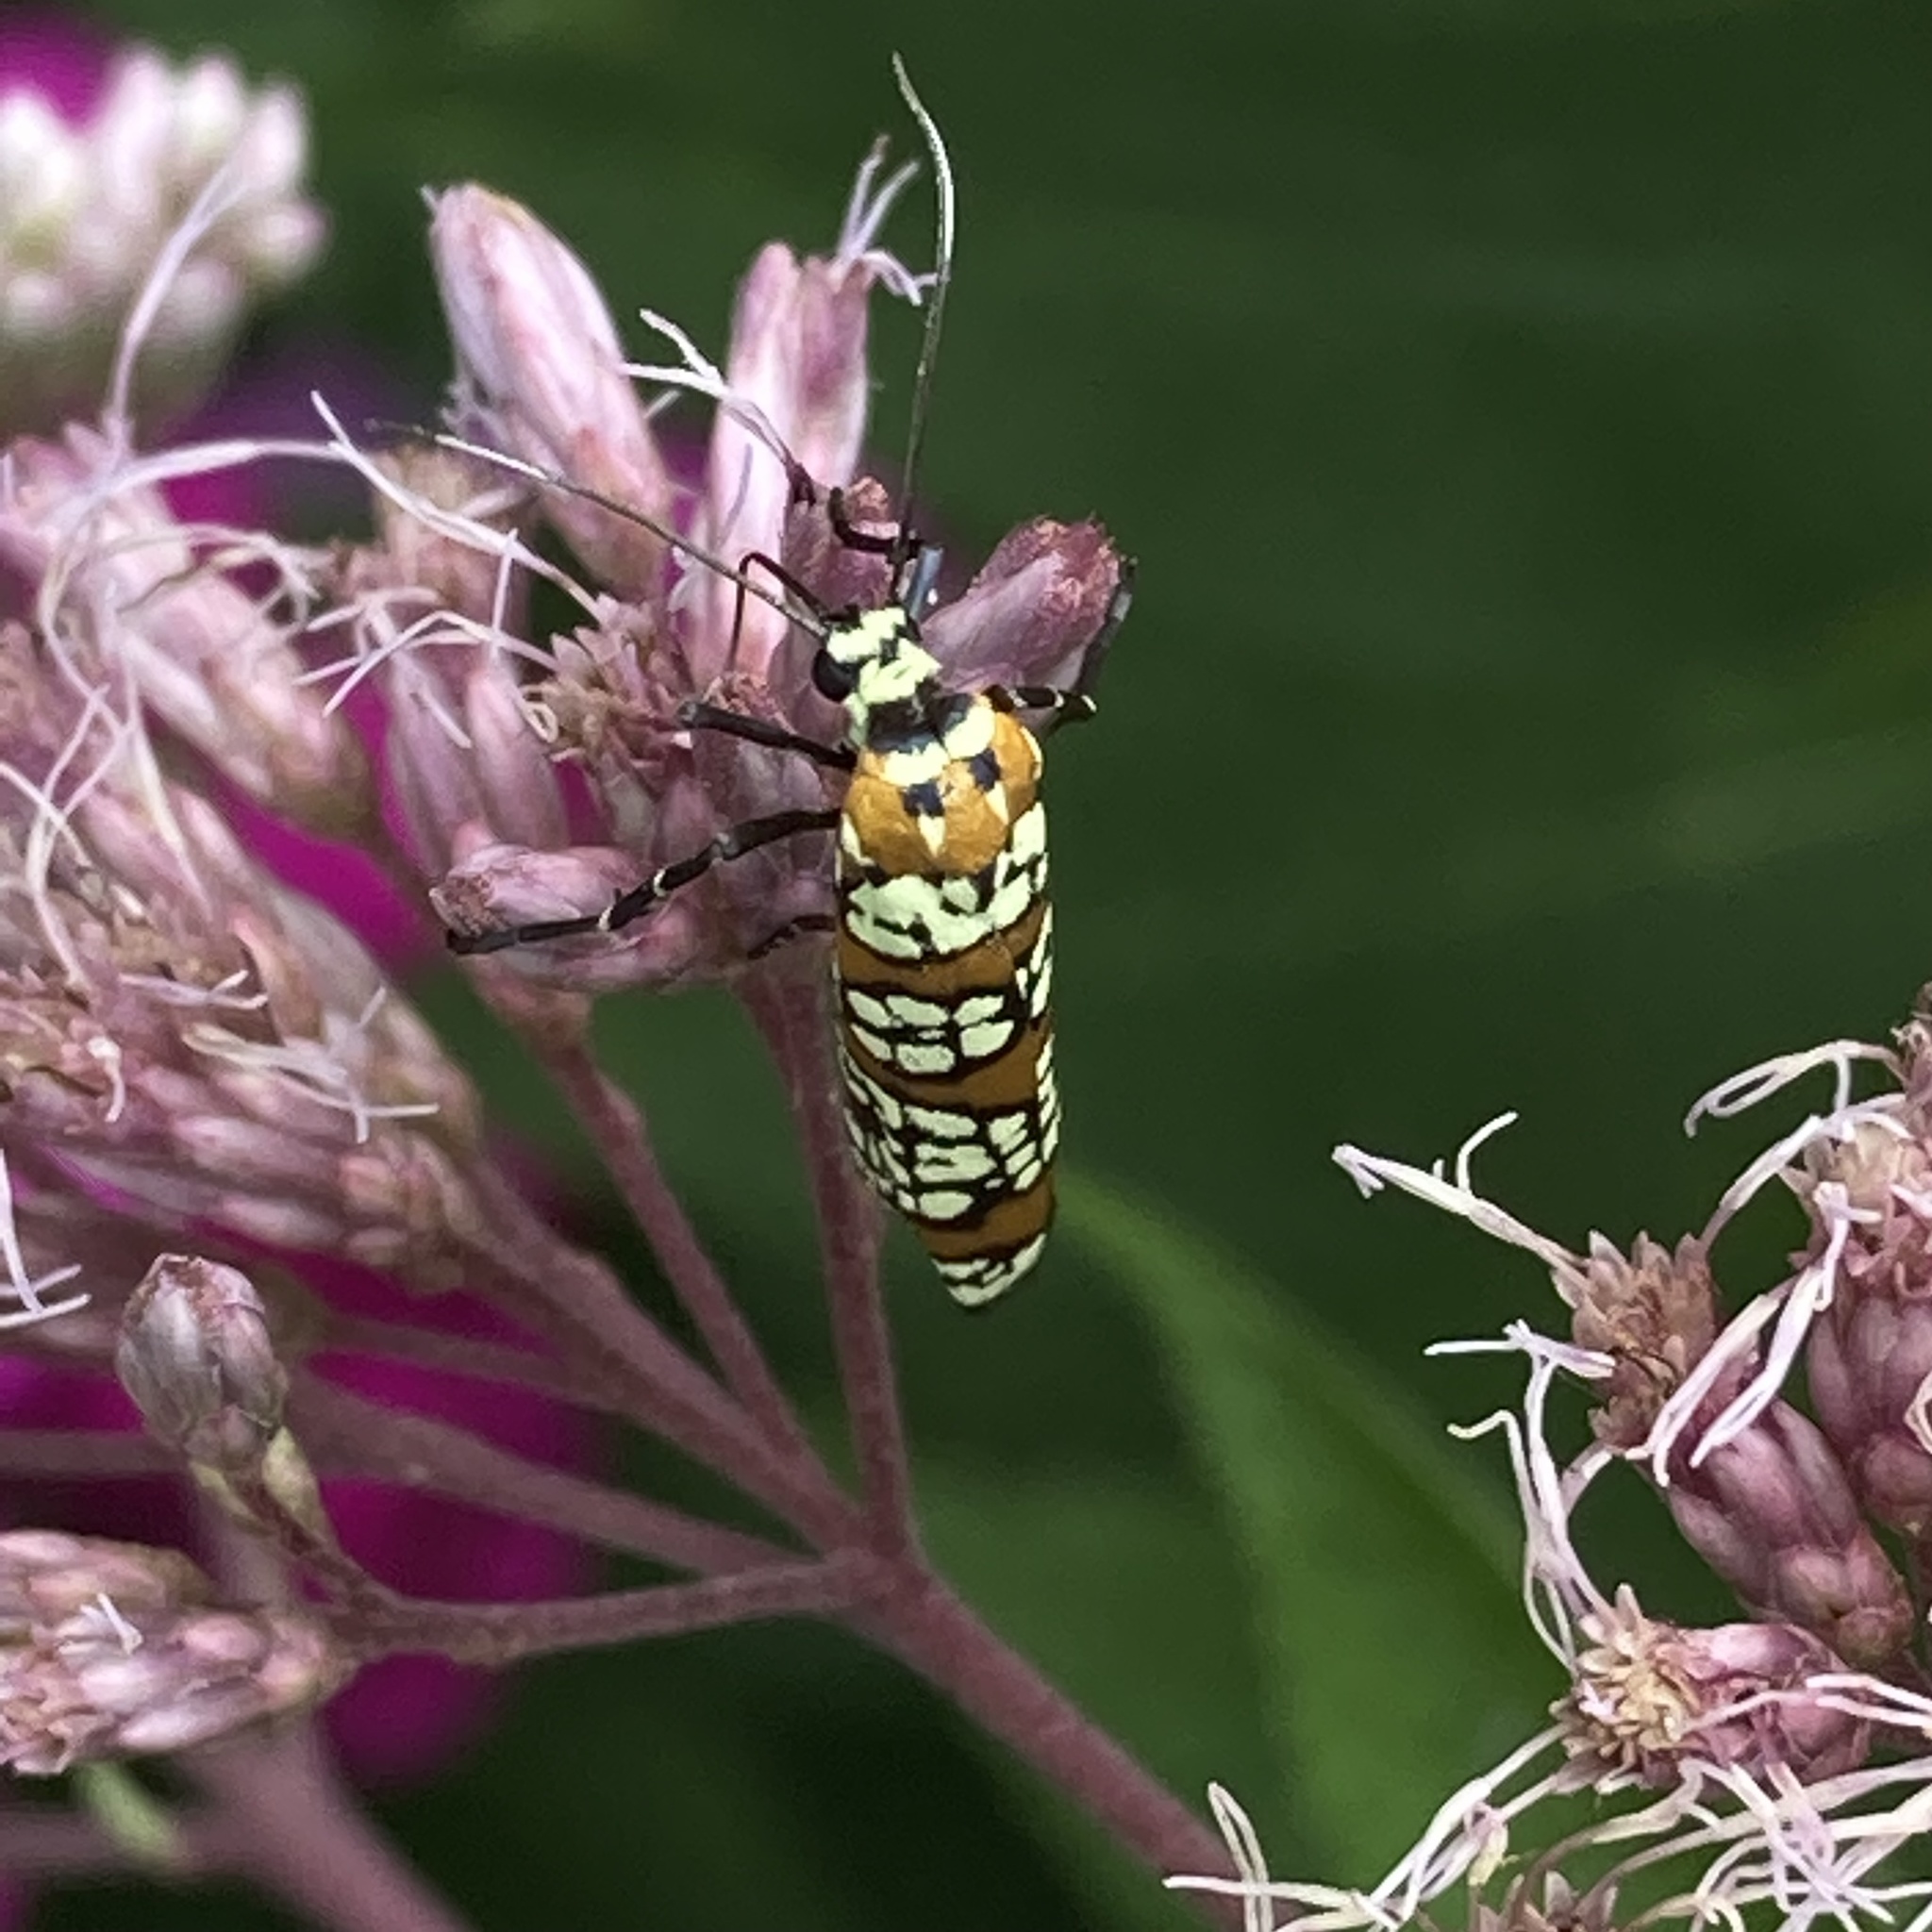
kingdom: Animalia
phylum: Arthropoda
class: Insecta
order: Lepidoptera
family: Attevidae
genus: Atteva
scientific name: Atteva punctella
